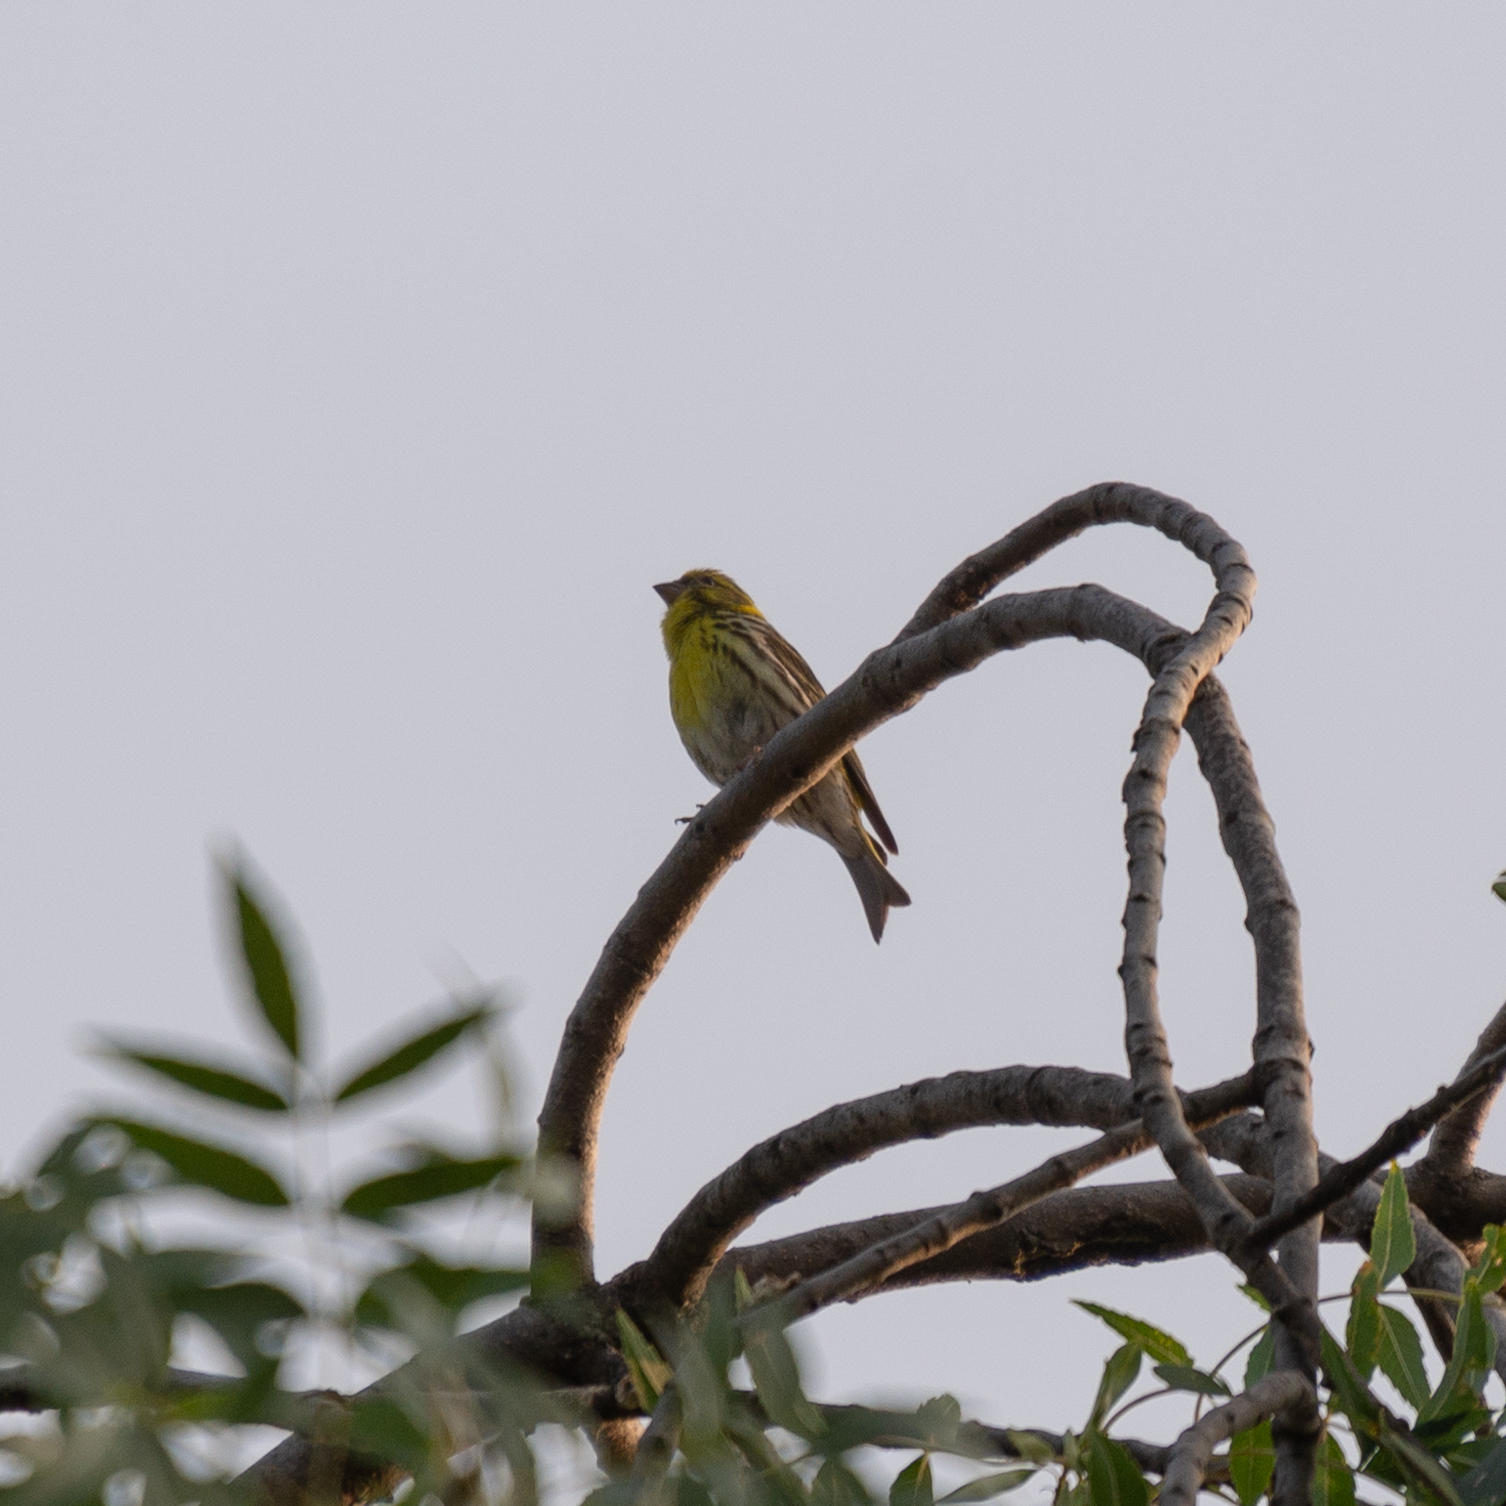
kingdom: Animalia
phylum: Chordata
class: Aves
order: Passeriformes
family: Fringillidae
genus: Serinus
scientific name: Serinus serinus
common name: European serin
